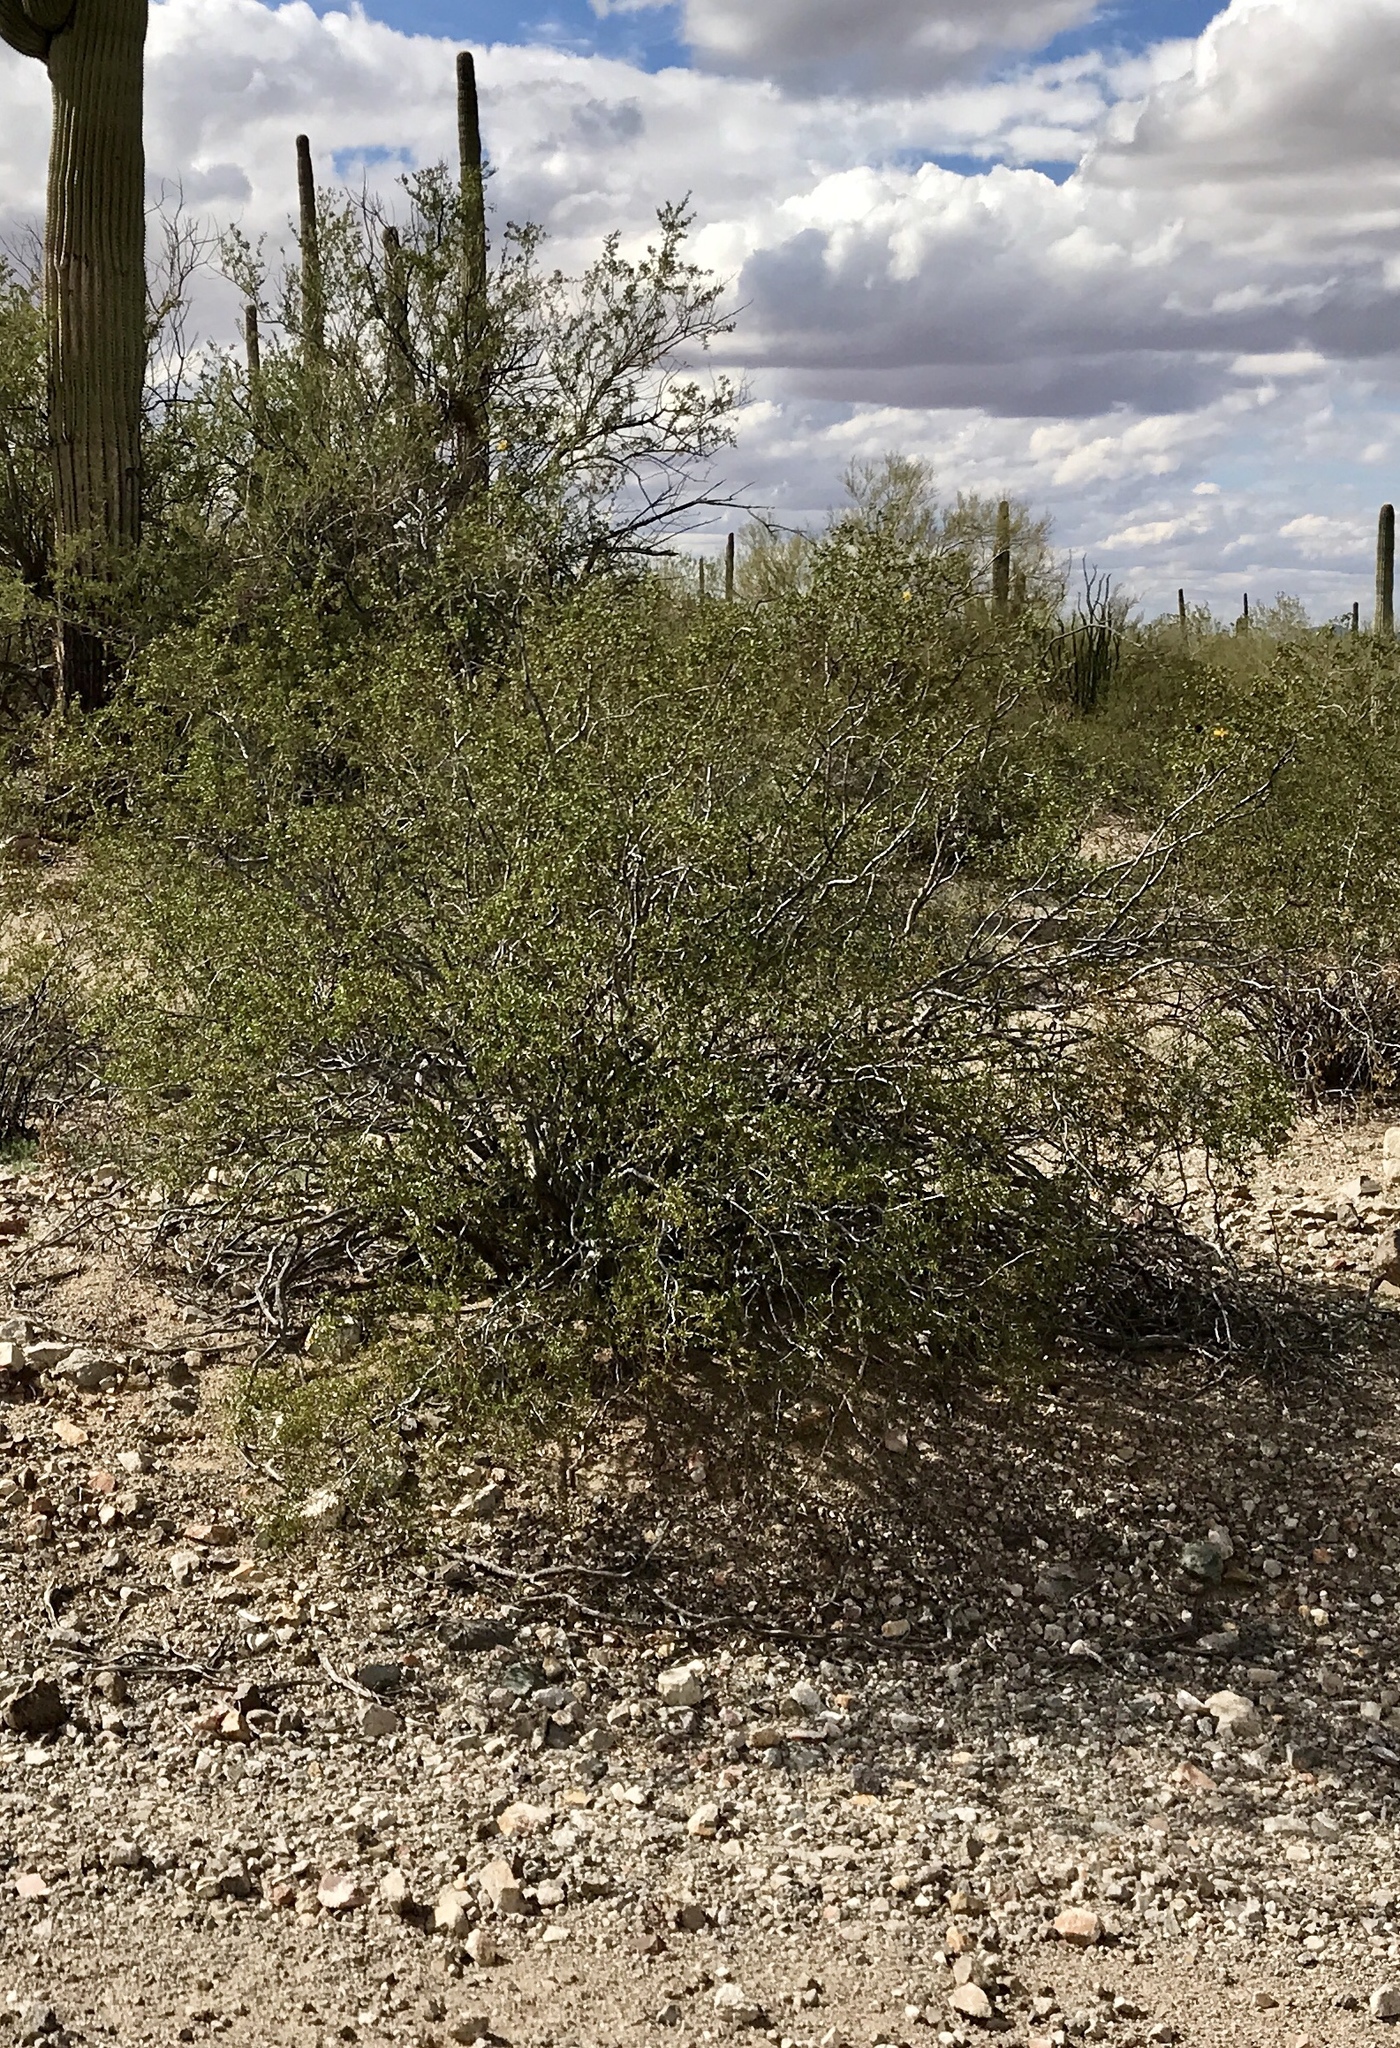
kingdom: Plantae
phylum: Tracheophyta
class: Magnoliopsida
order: Zygophyllales
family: Zygophyllaceae
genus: Larrea
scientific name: Larrea tridentata
